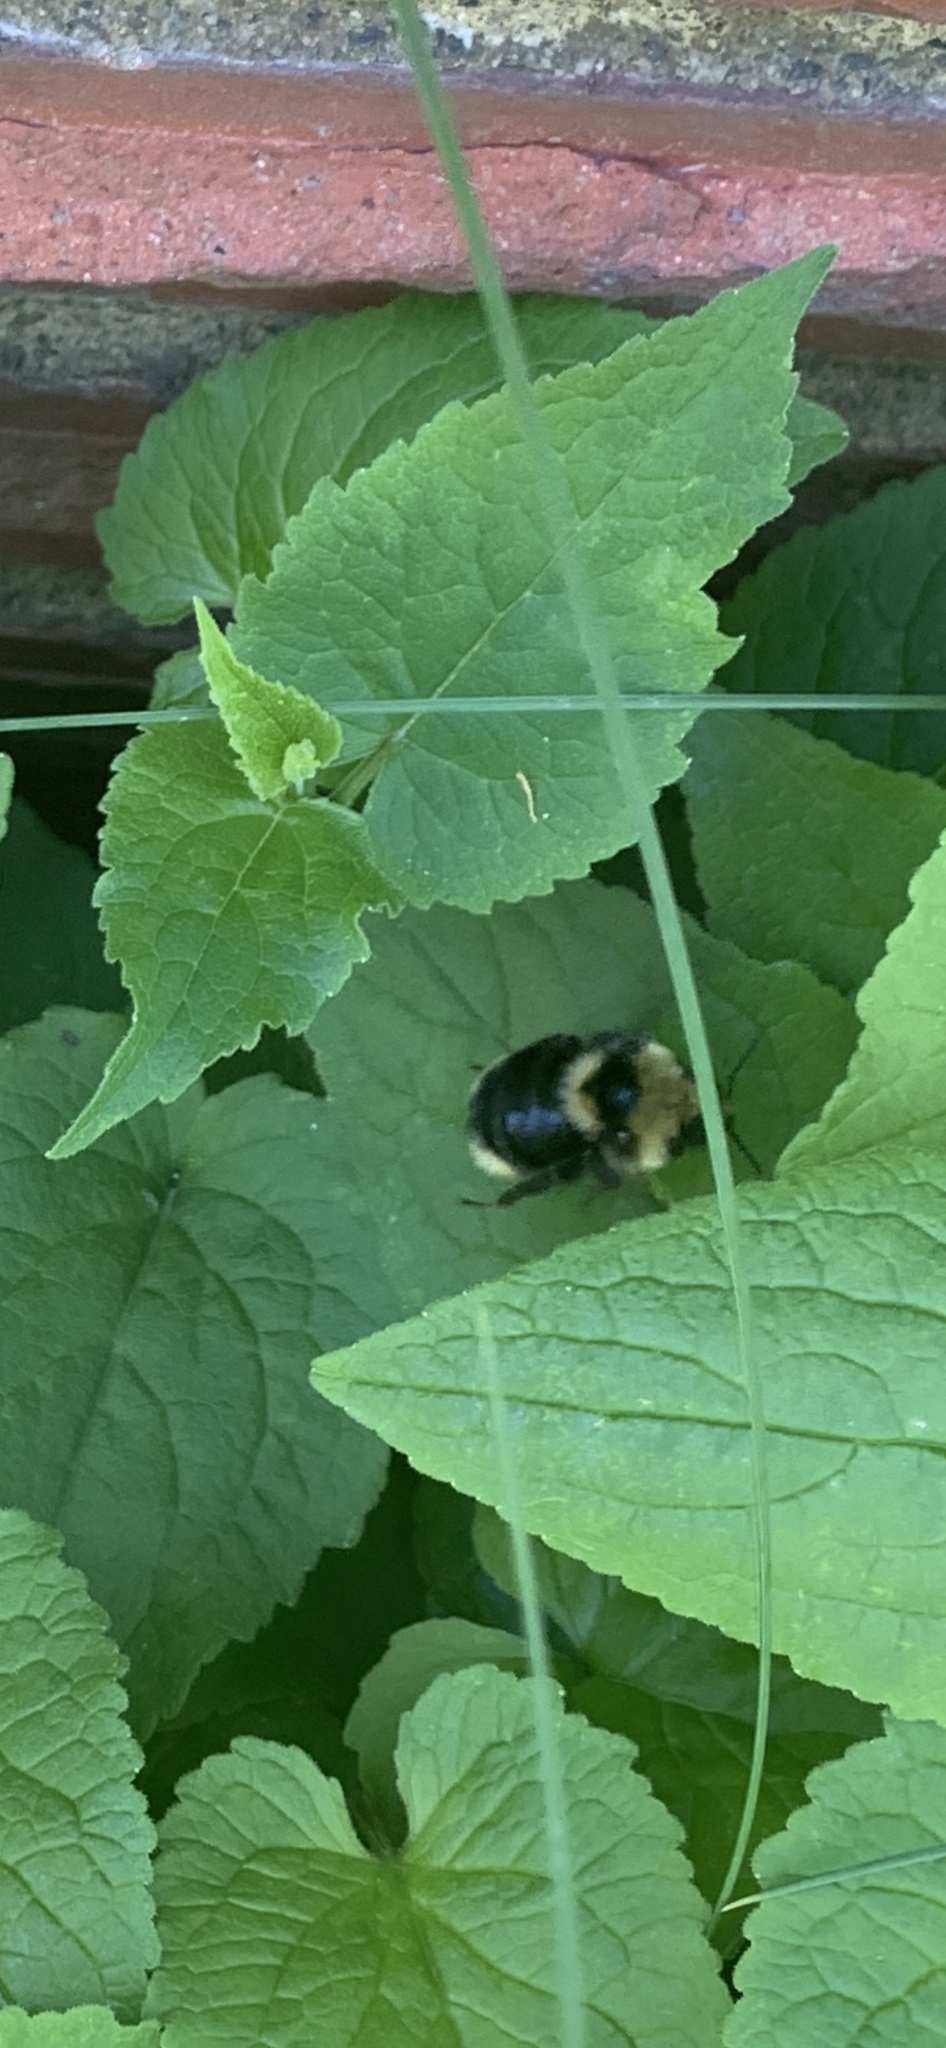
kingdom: Animalia
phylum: Arthropoda
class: Insecta
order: Hymenoptera
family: Apidae
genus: Bombus
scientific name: Bombus insularis
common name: Indiscriminate cuckoo bumble bee
